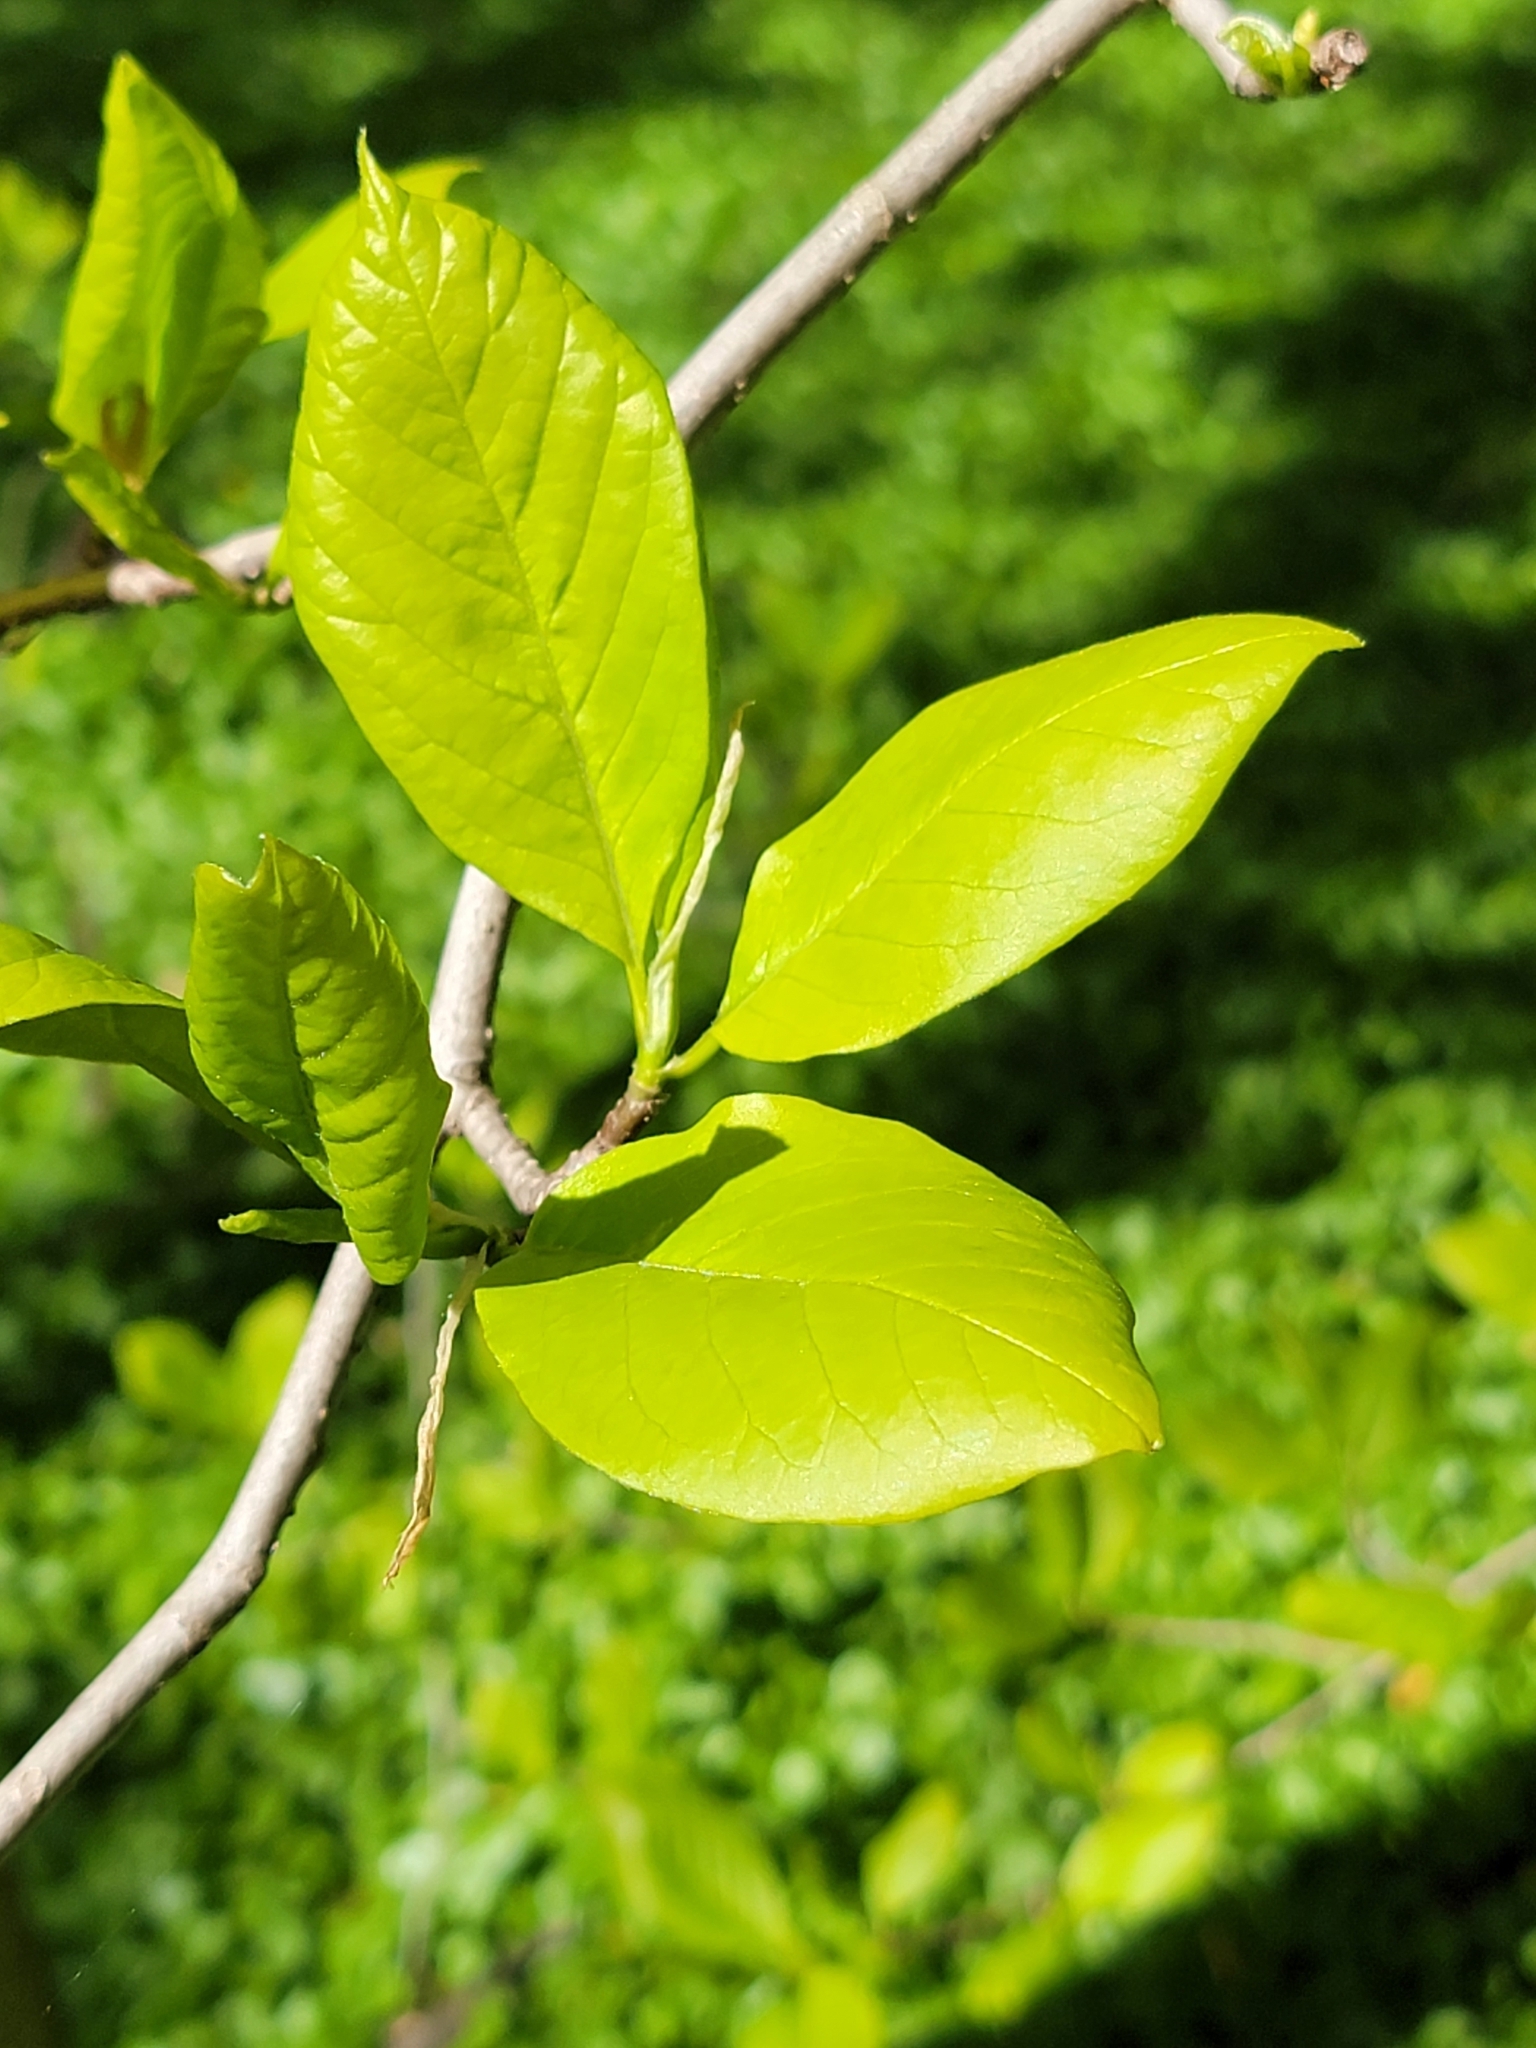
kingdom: Plantae
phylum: Tracheophyta
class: Magnoliopsida
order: Cornales
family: Nyssaceae
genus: Nyssa
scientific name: Nyssa sylvatica
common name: Black tupelo
